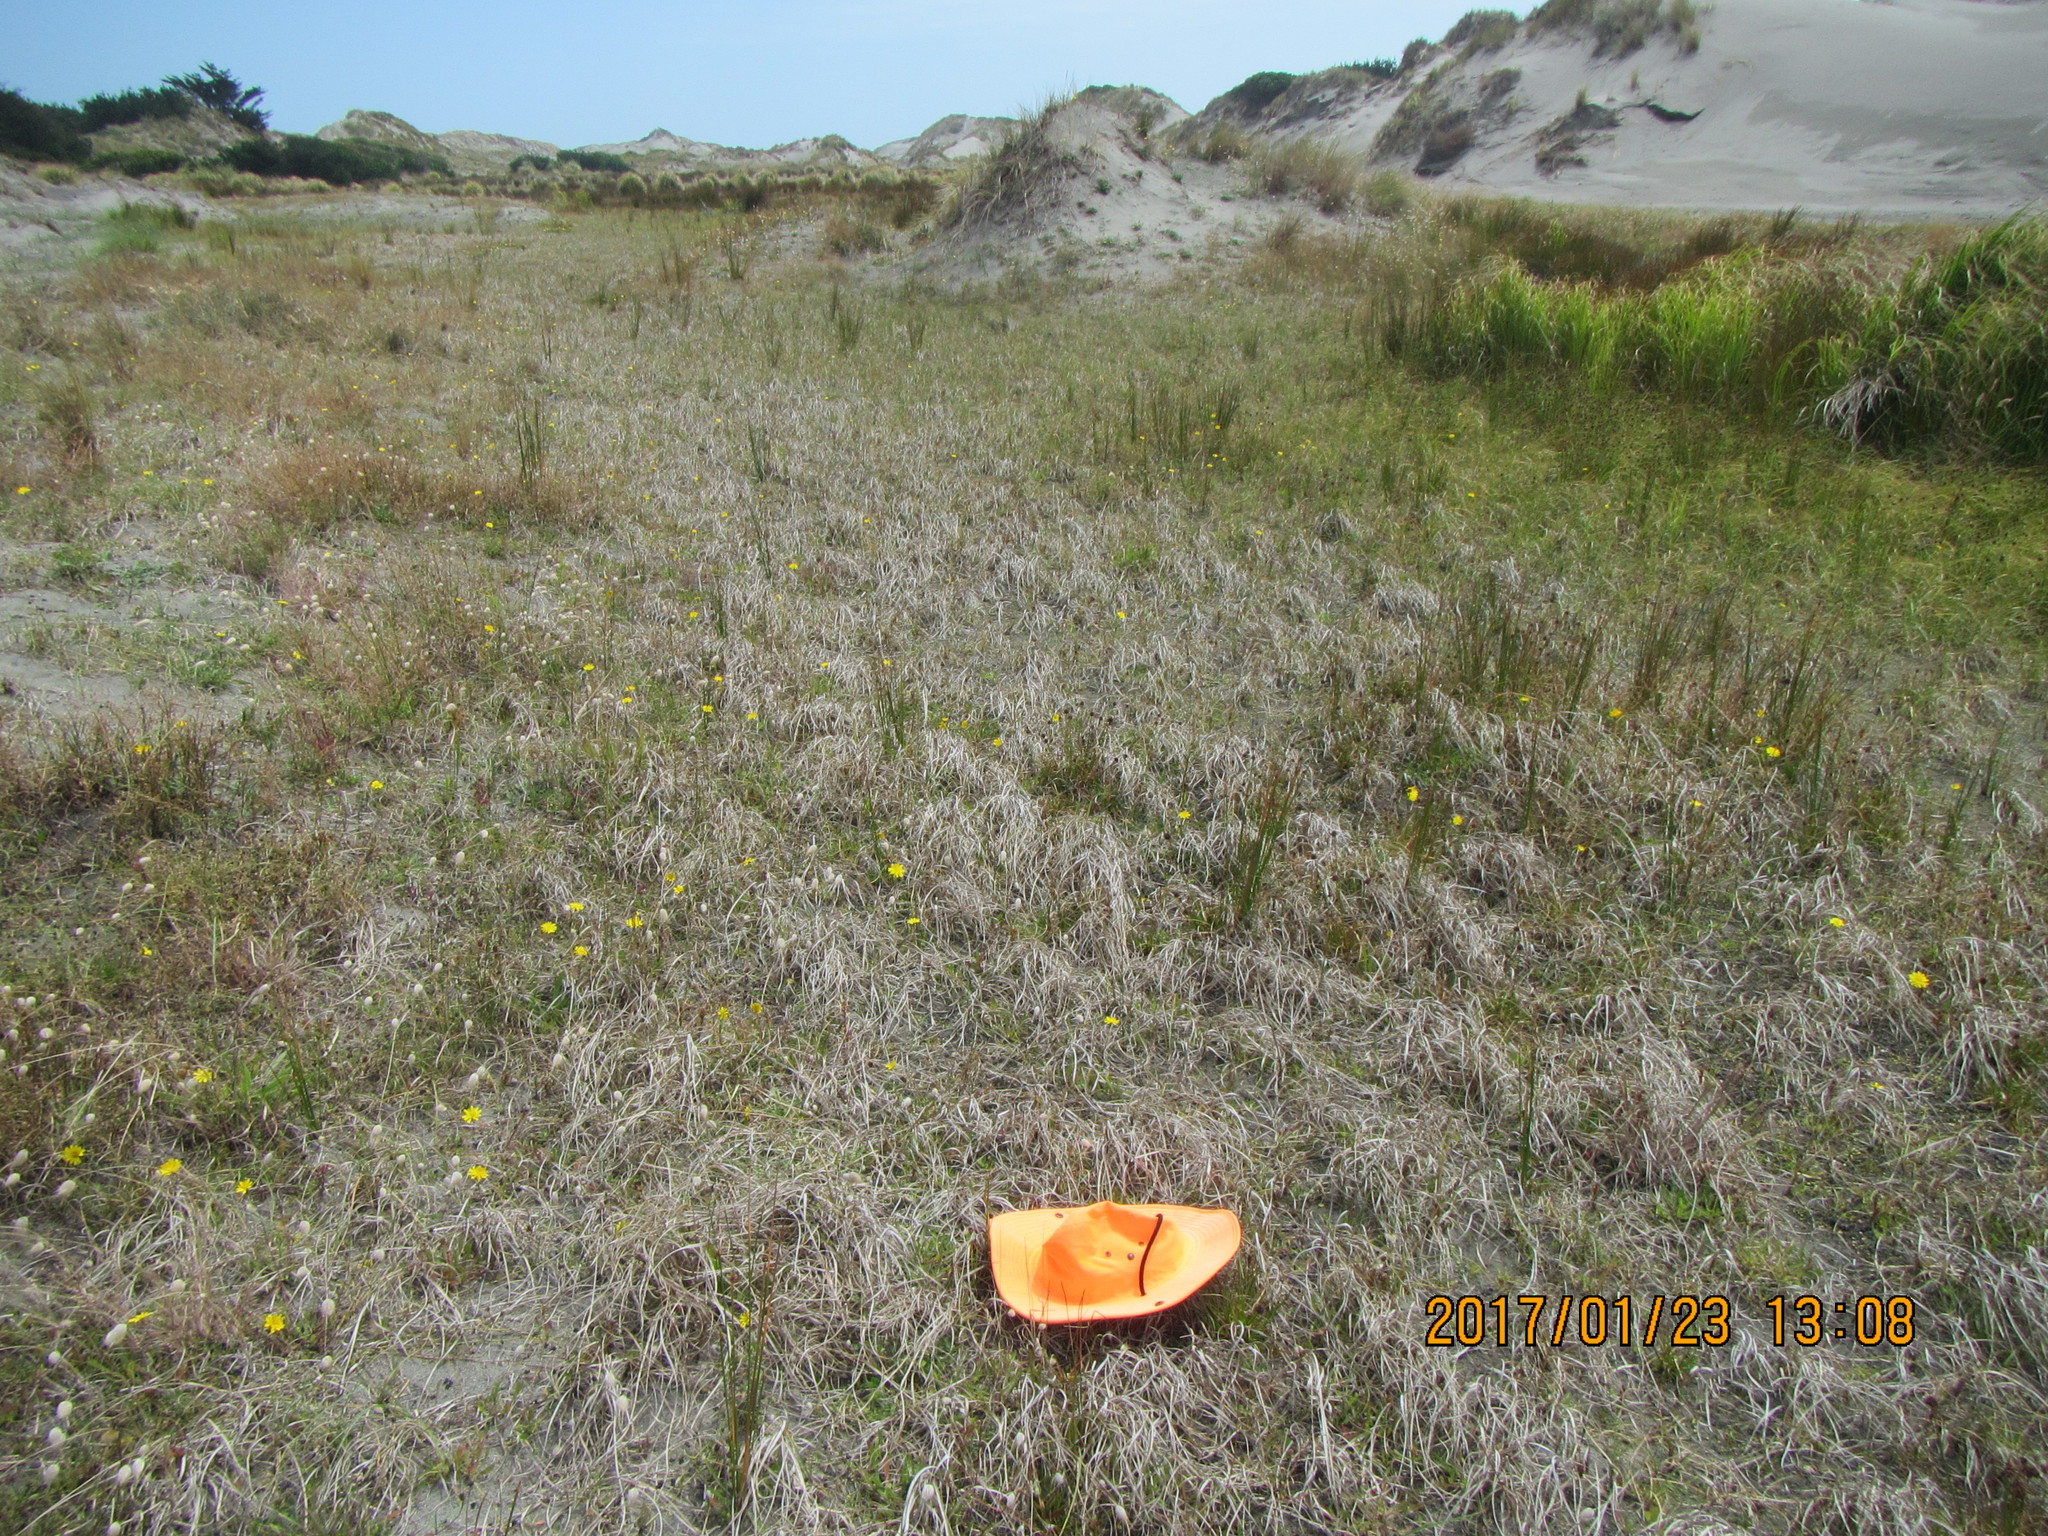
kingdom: Plantae
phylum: Tracheophyta
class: Liliopsida
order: Poales
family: Juncaceae
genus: Juncus
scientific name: Juncus caespiticius
